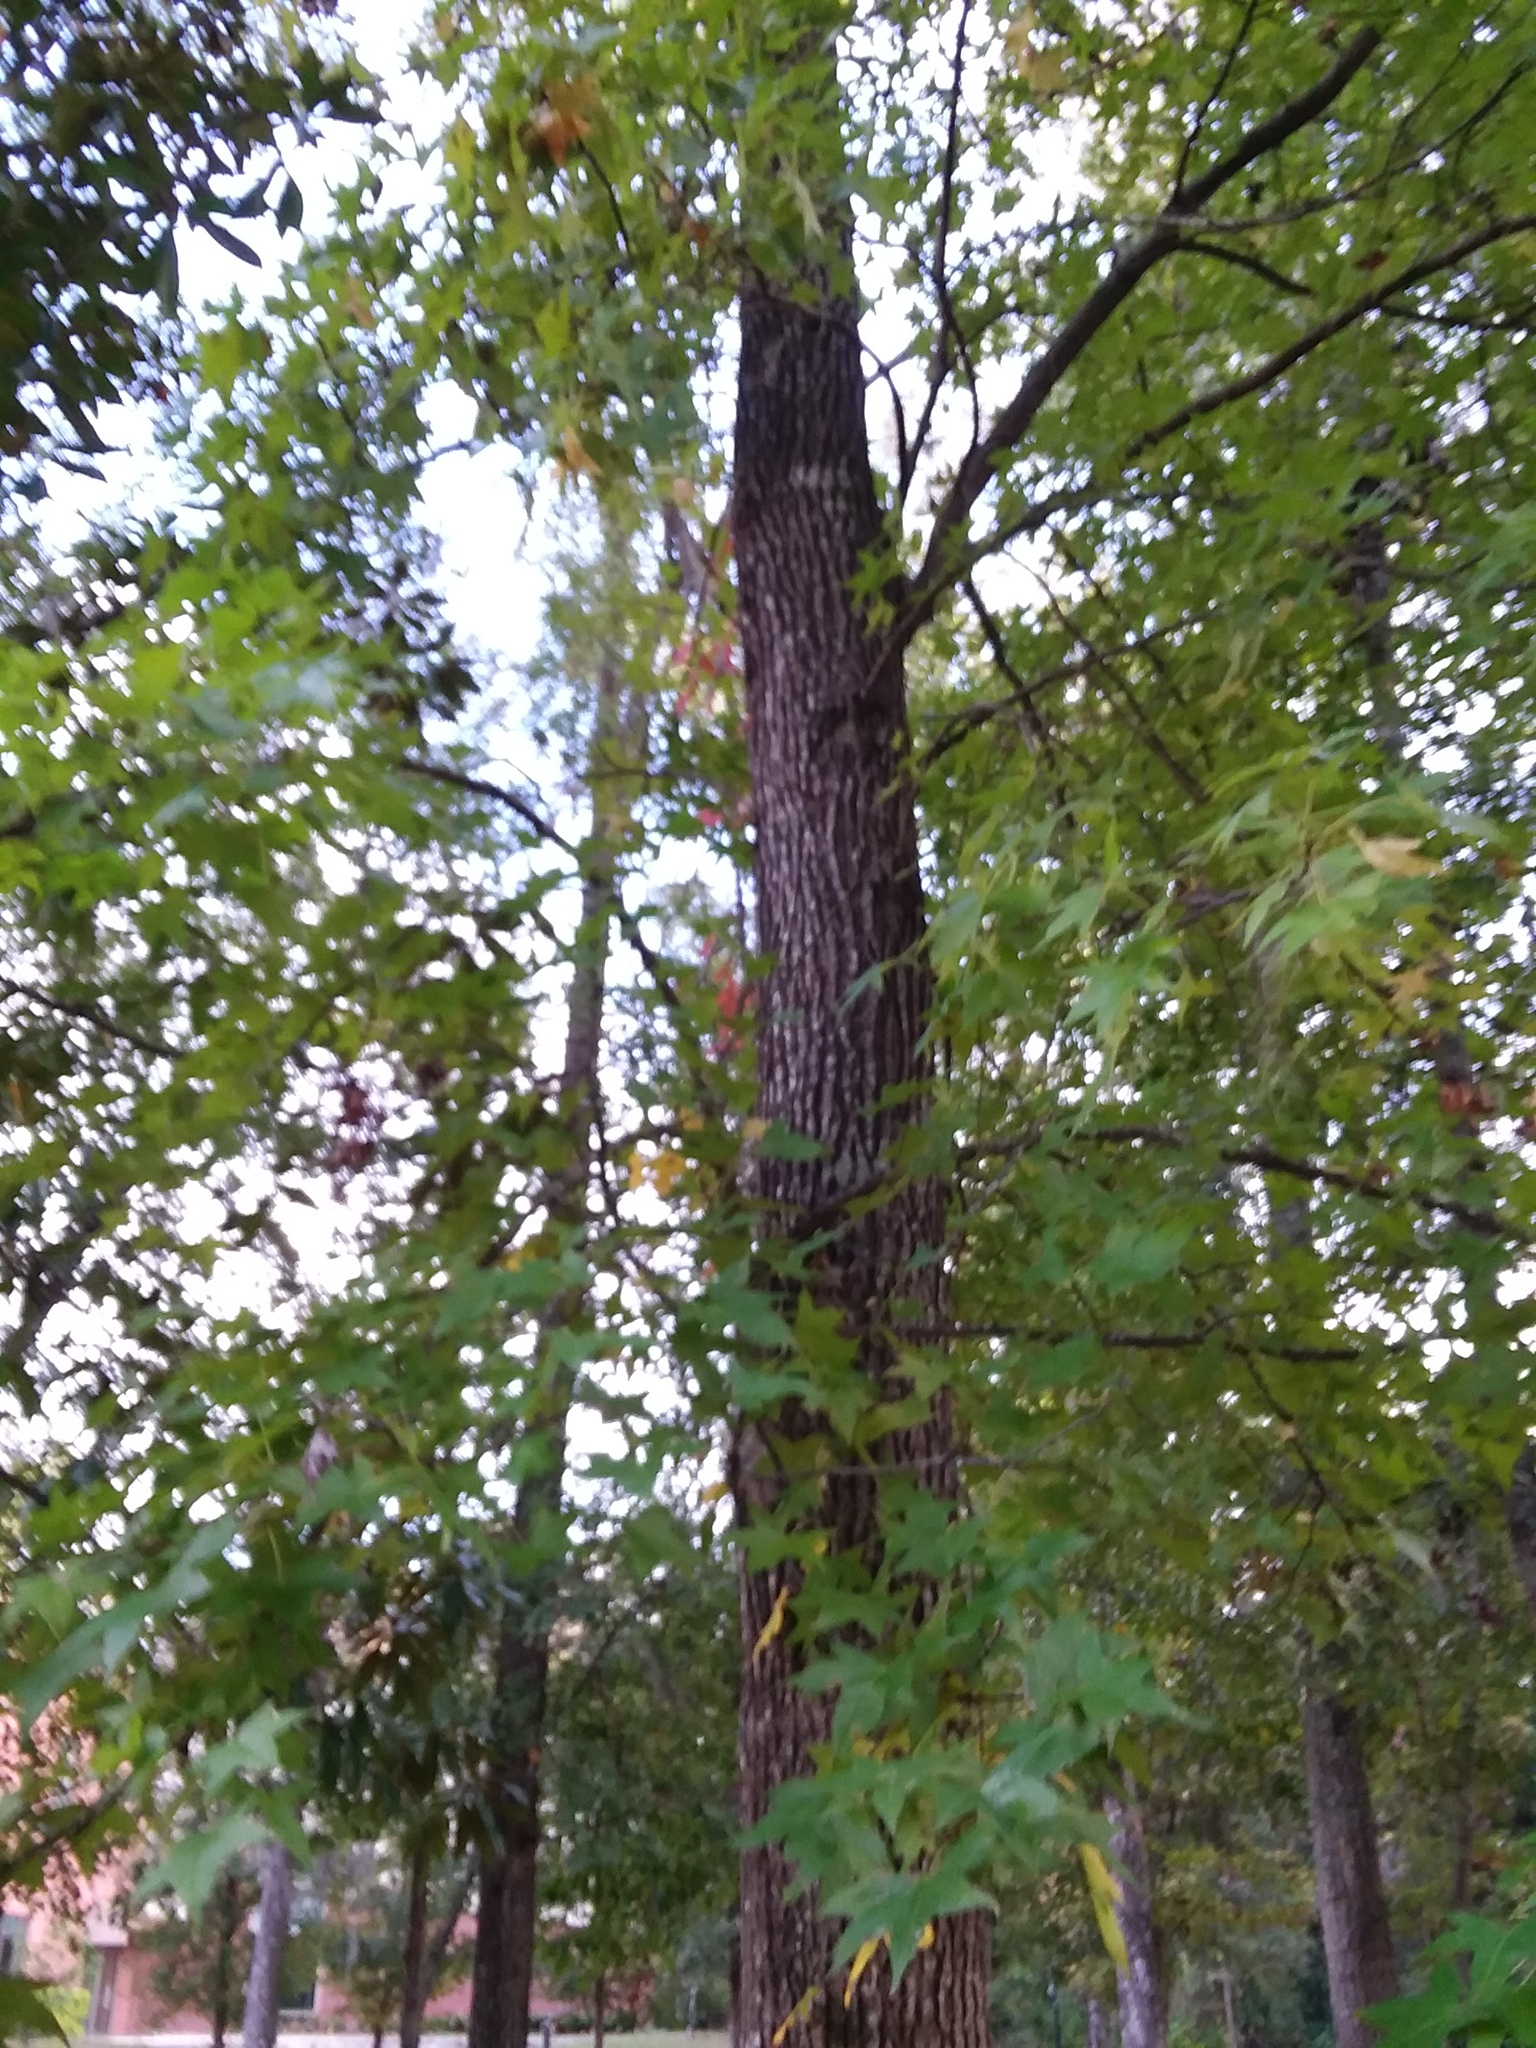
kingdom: Plantae
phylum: Tracheophyta
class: Magnoliopsida
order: Saxifragales
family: Altingiaceae
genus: Liquidambar
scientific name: Liquidambar styraciflua
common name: Sweet gum
